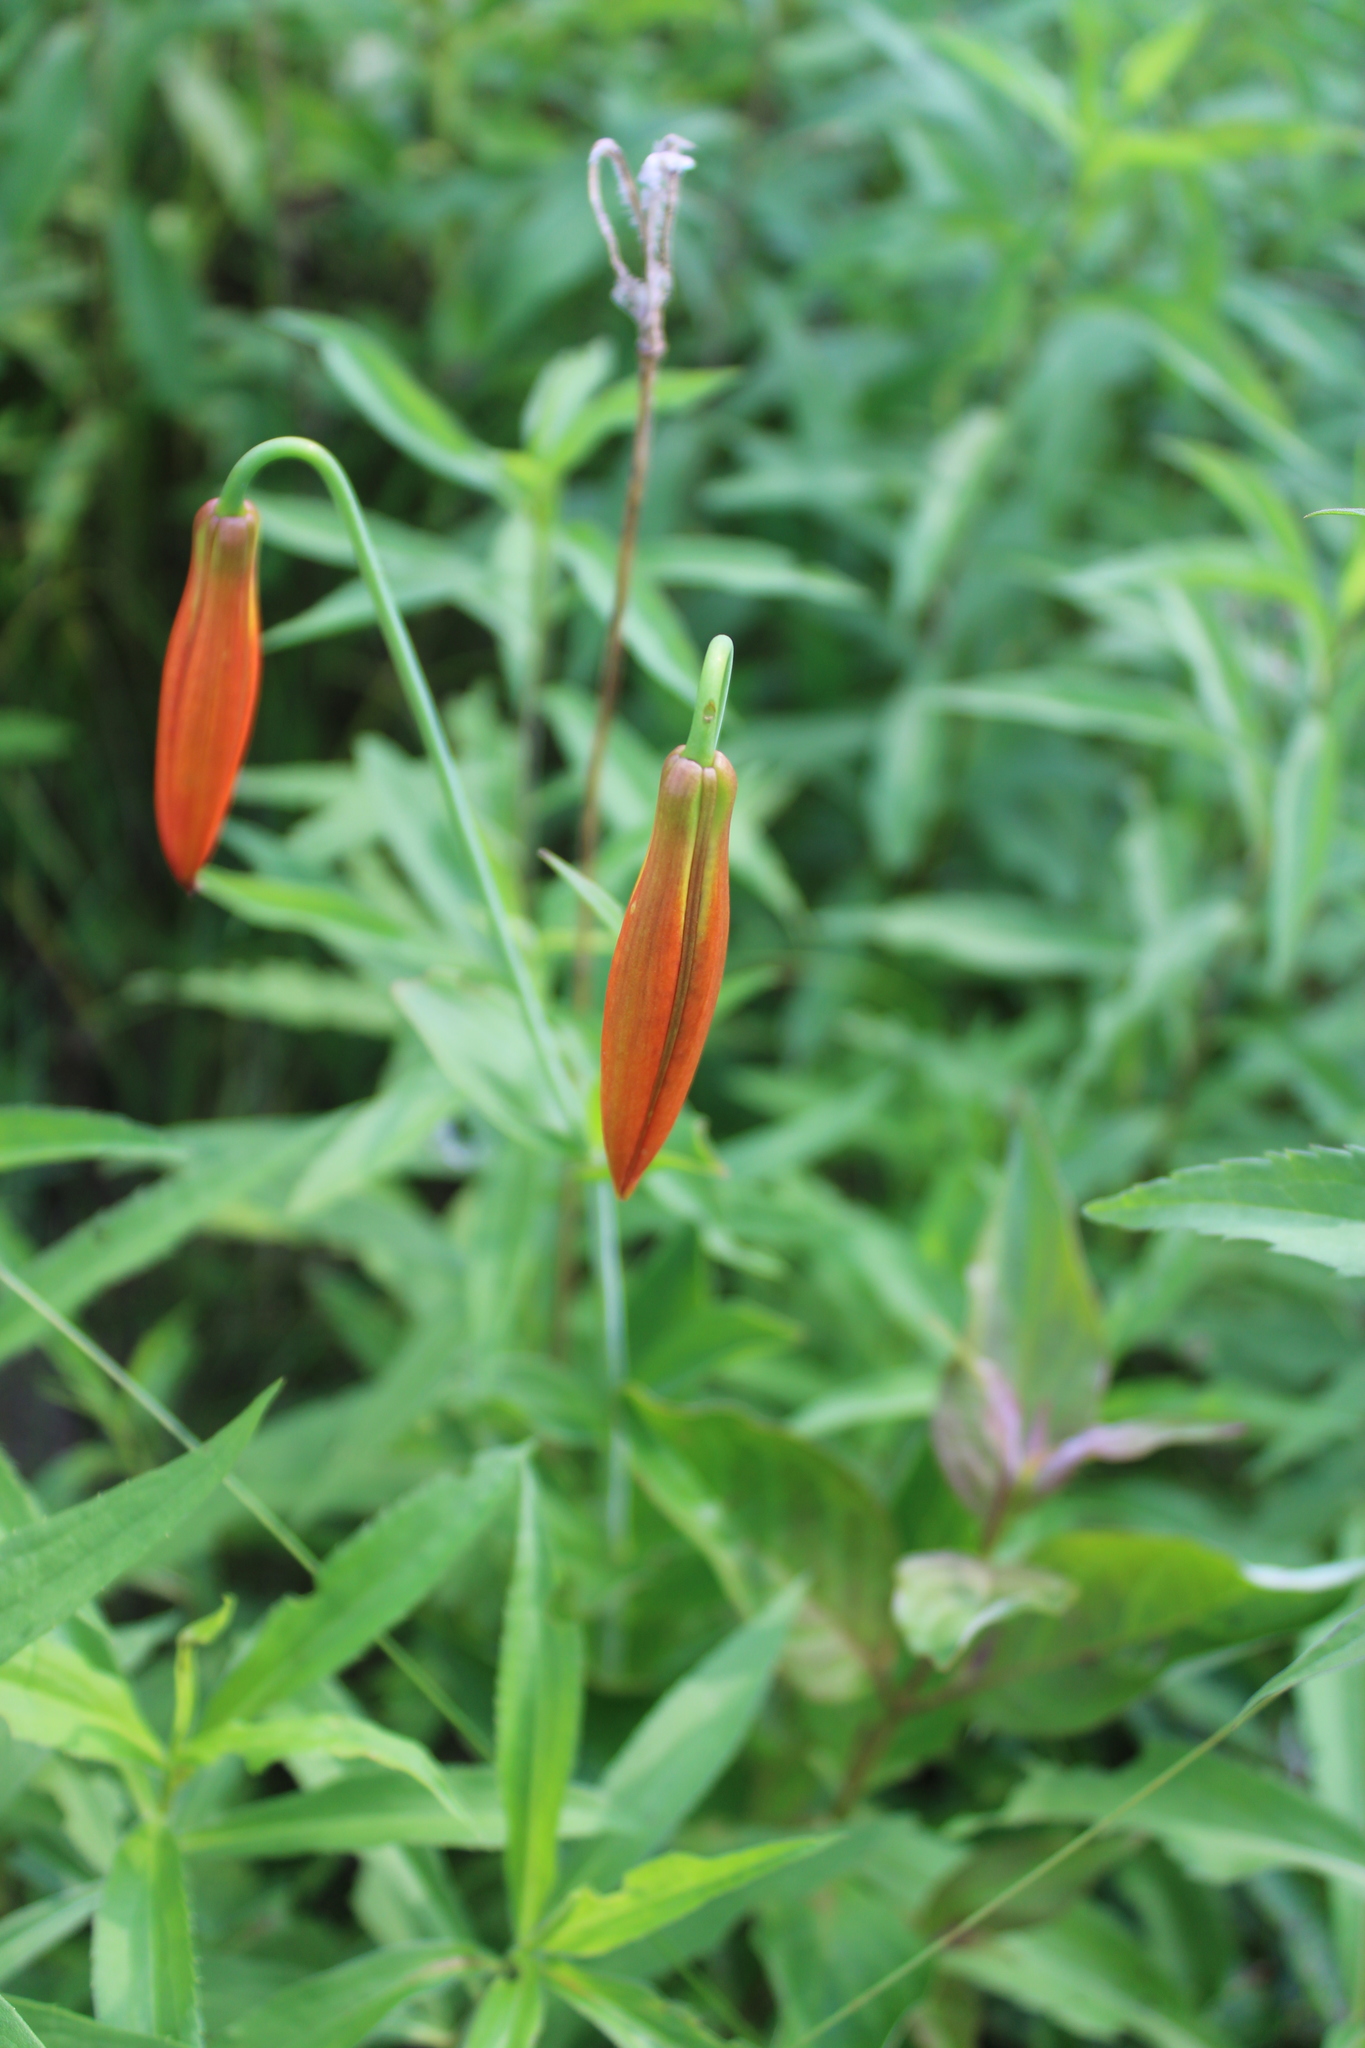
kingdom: Plantae
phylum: Tracheophyta
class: Liliopsida
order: Liliales
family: Liliaceae
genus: Lilium
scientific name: Lilium michiganense
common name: Michigan lily
